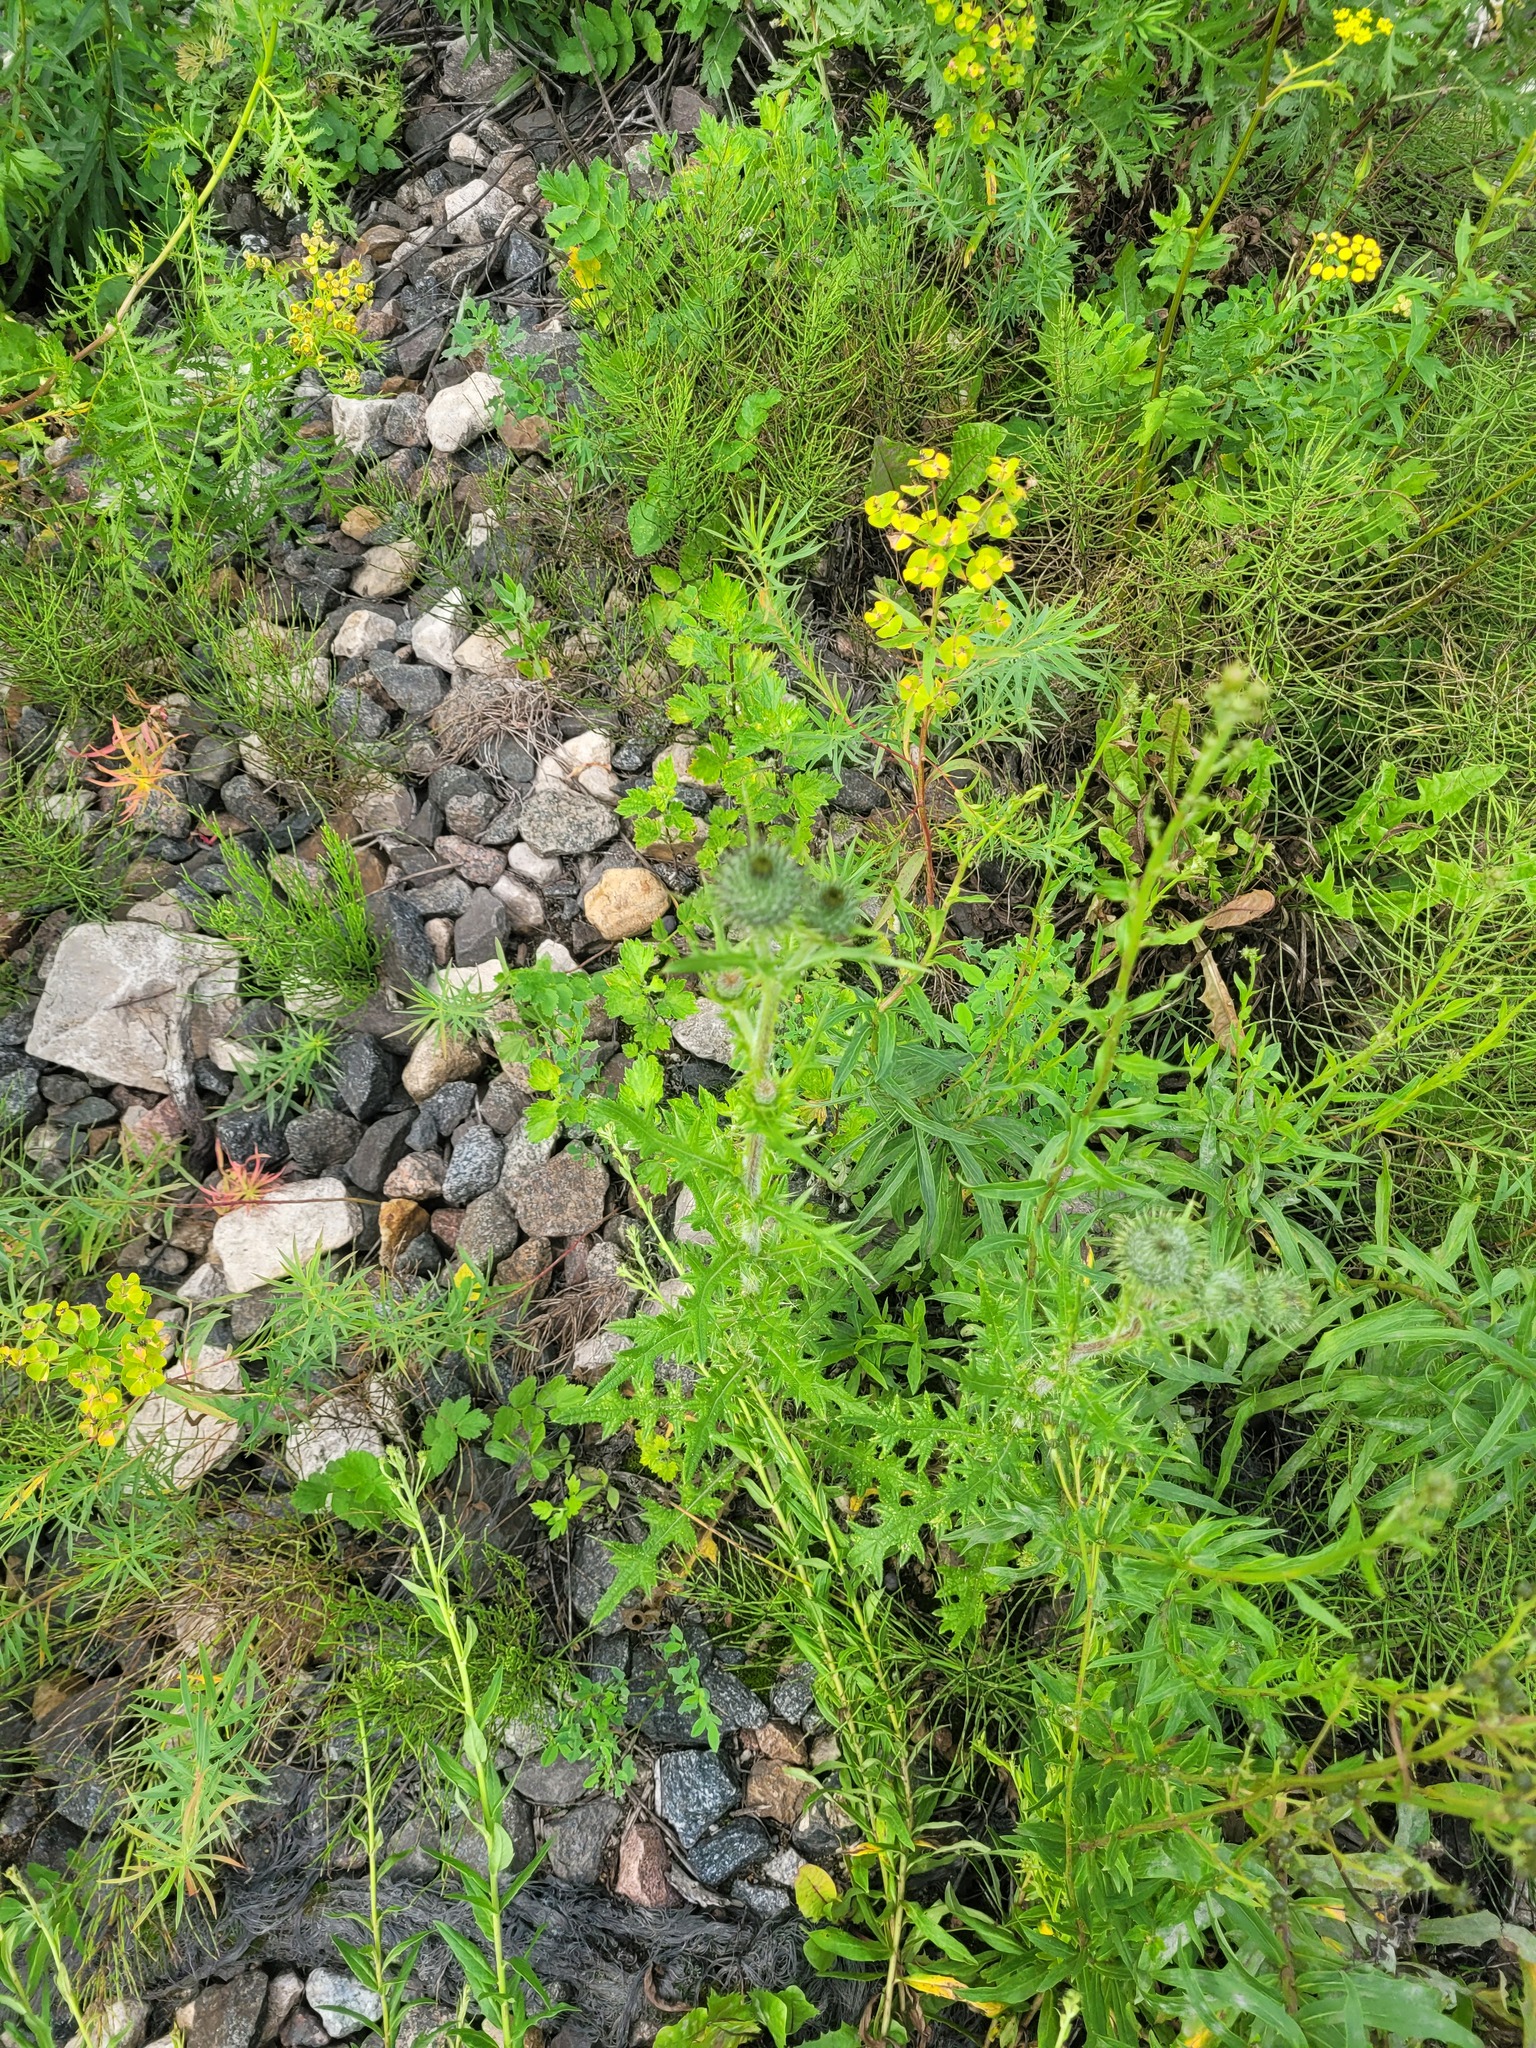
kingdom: Plantae
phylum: Tracheophyta
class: Magnoliopsida
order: Asterales
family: Asteraceae
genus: Cirsium
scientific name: Cirsium vulgare
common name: Bull thistle
